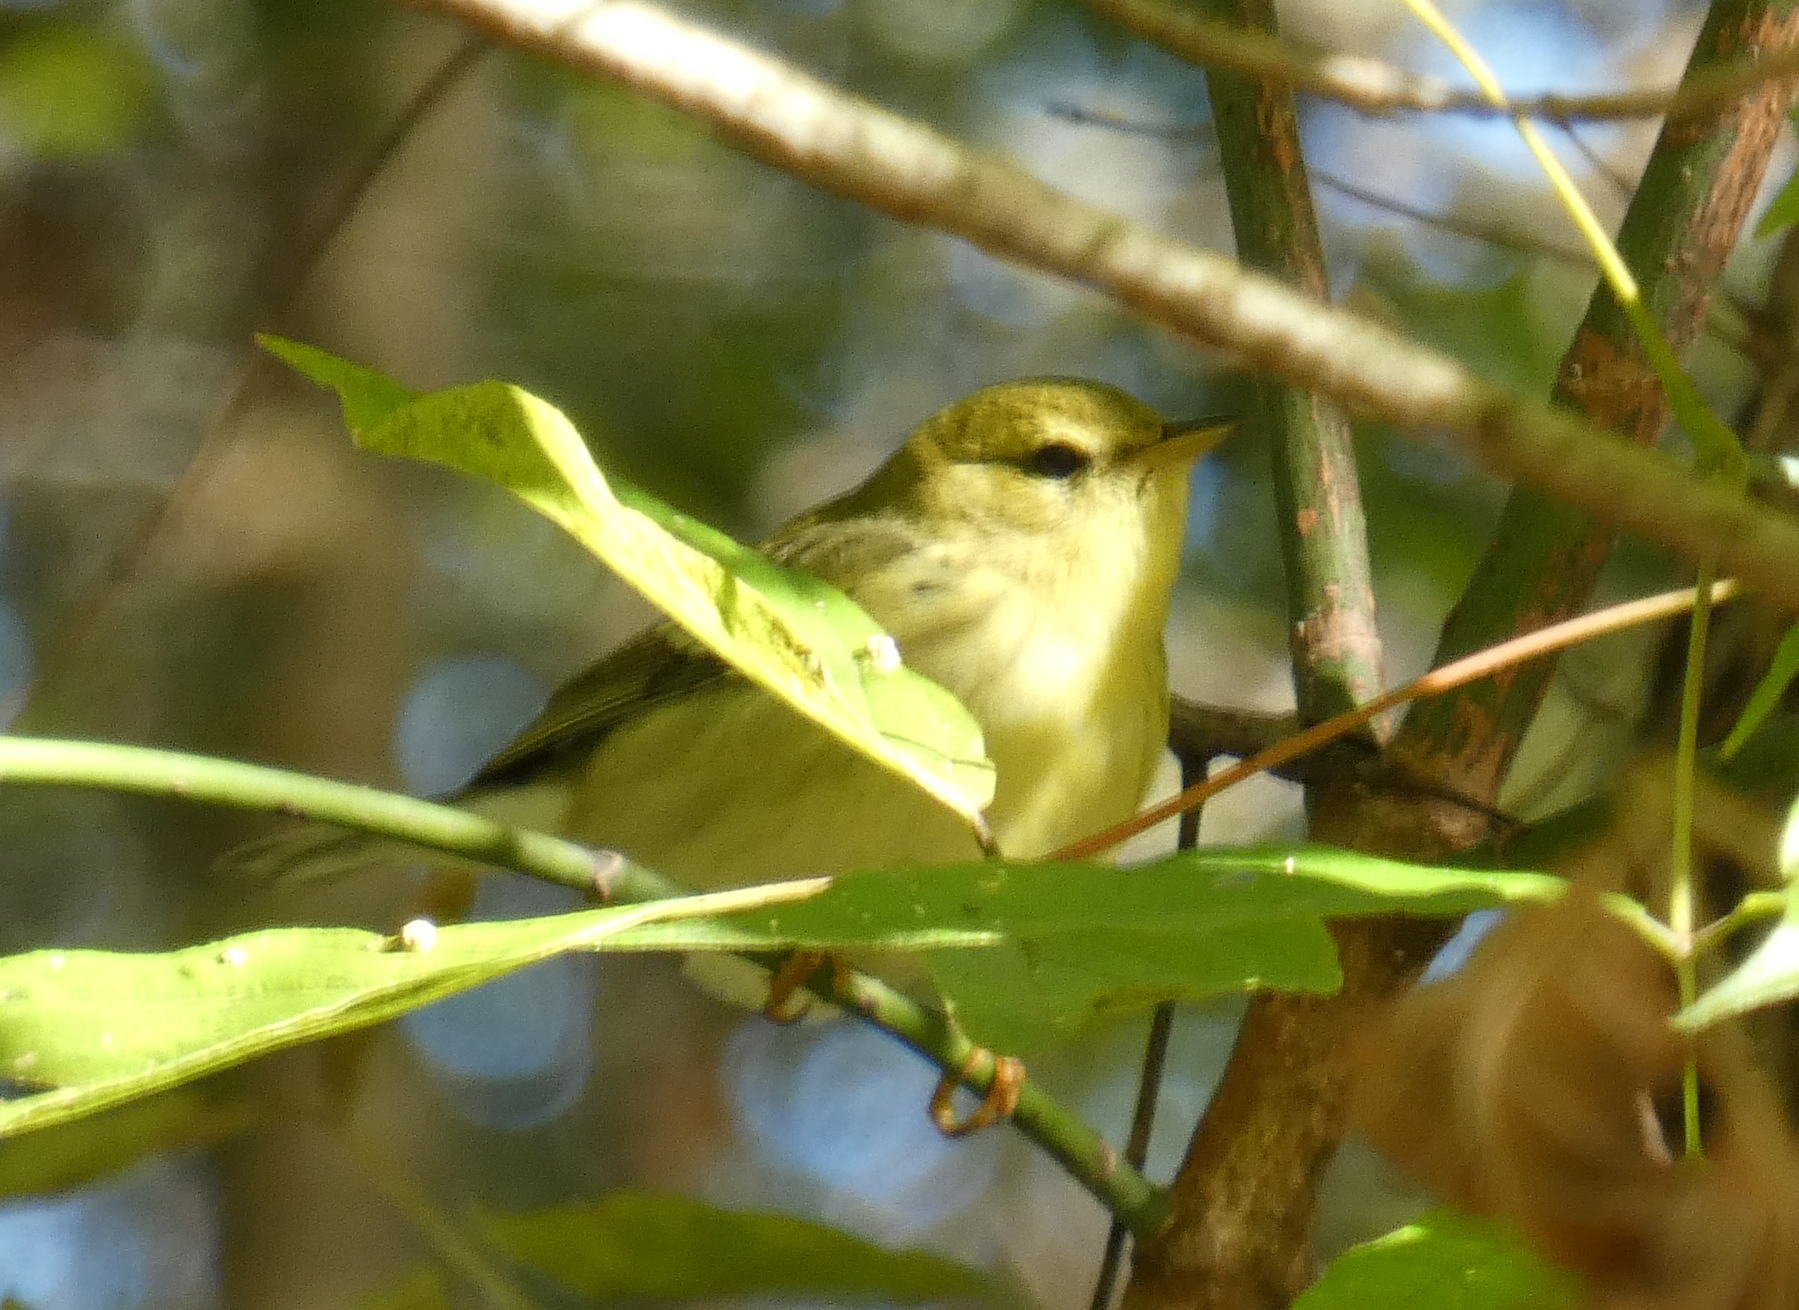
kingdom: Animalia
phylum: Chordata
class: Aves
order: Passeriformes
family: Parulidae
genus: Setophaga
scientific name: Setophaga striata
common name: Blackpoll warbler
